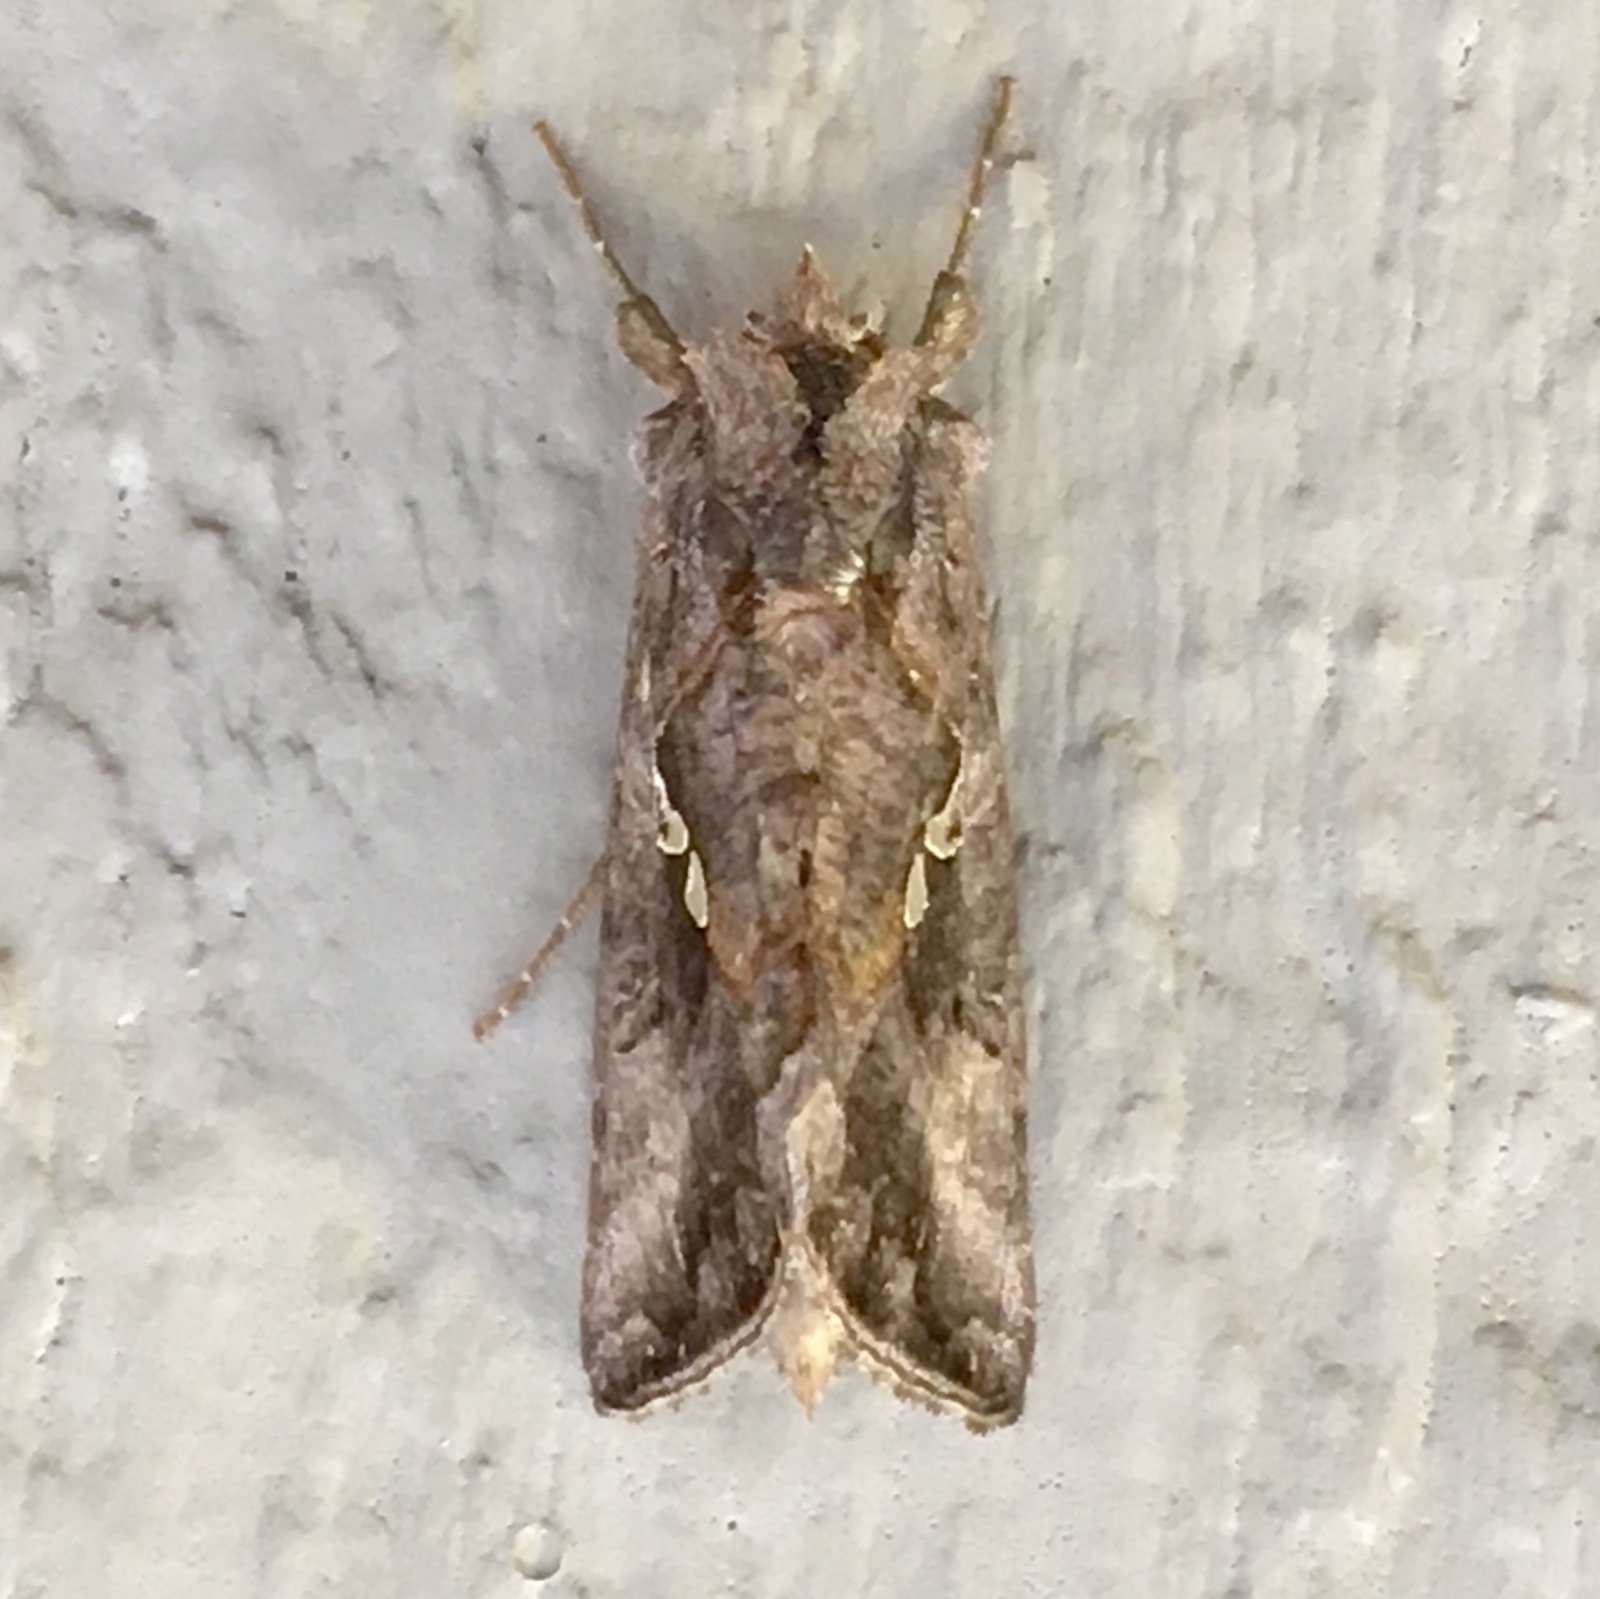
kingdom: Animalia
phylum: Arthropoda
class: Insecta
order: Lepidoptera
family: Noctuidae
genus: Autographa
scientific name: Autographa precationis
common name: Common looper moth
